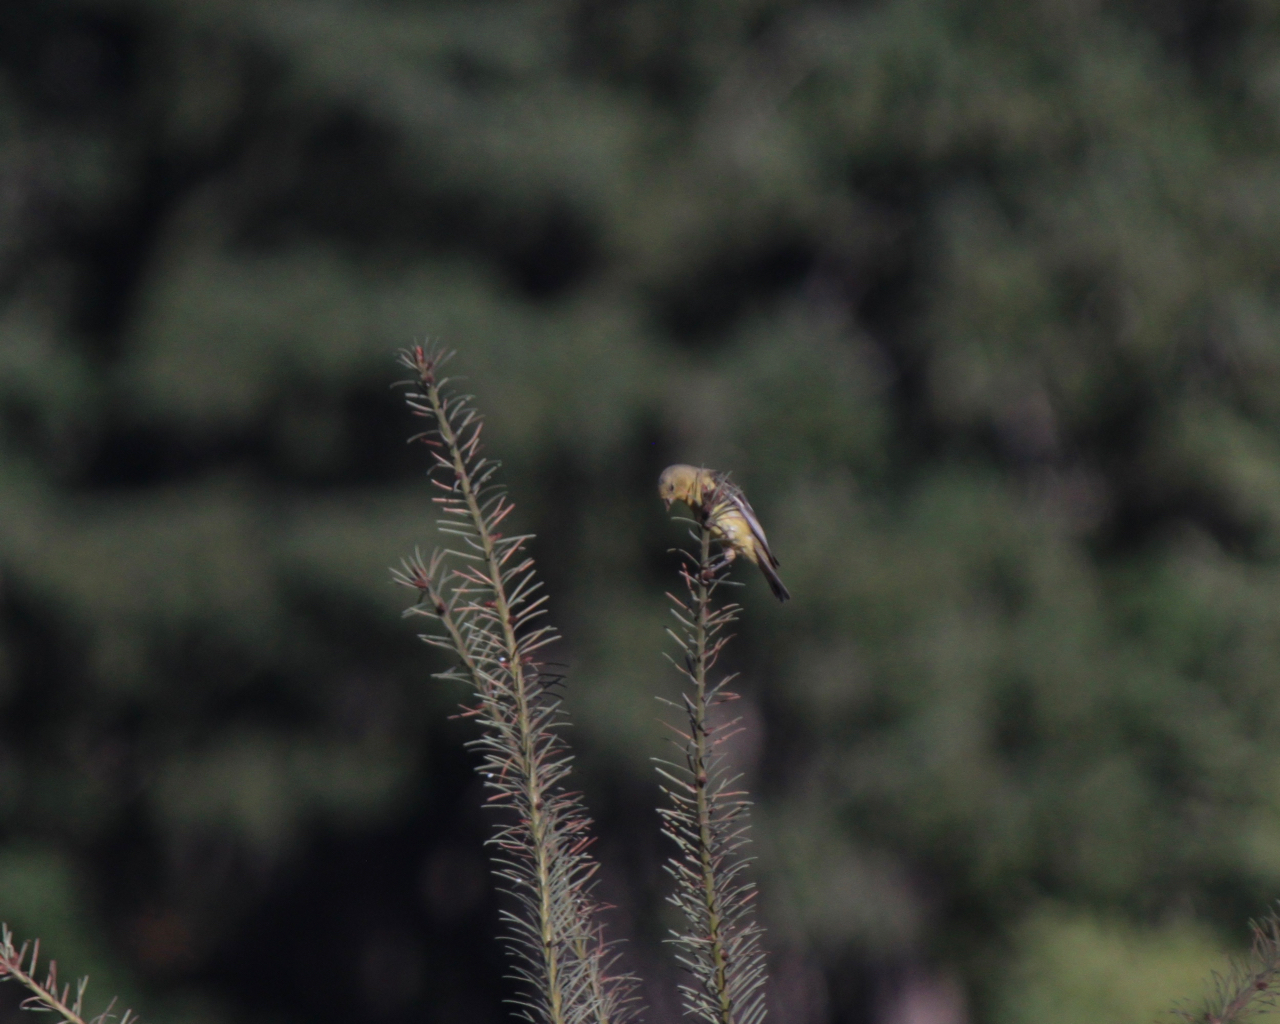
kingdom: Animalia
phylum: Chordata
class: Aves
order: Passeriformes
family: Fringillidae
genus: Spinus
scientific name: Spinus tristis
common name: American goldfinch
